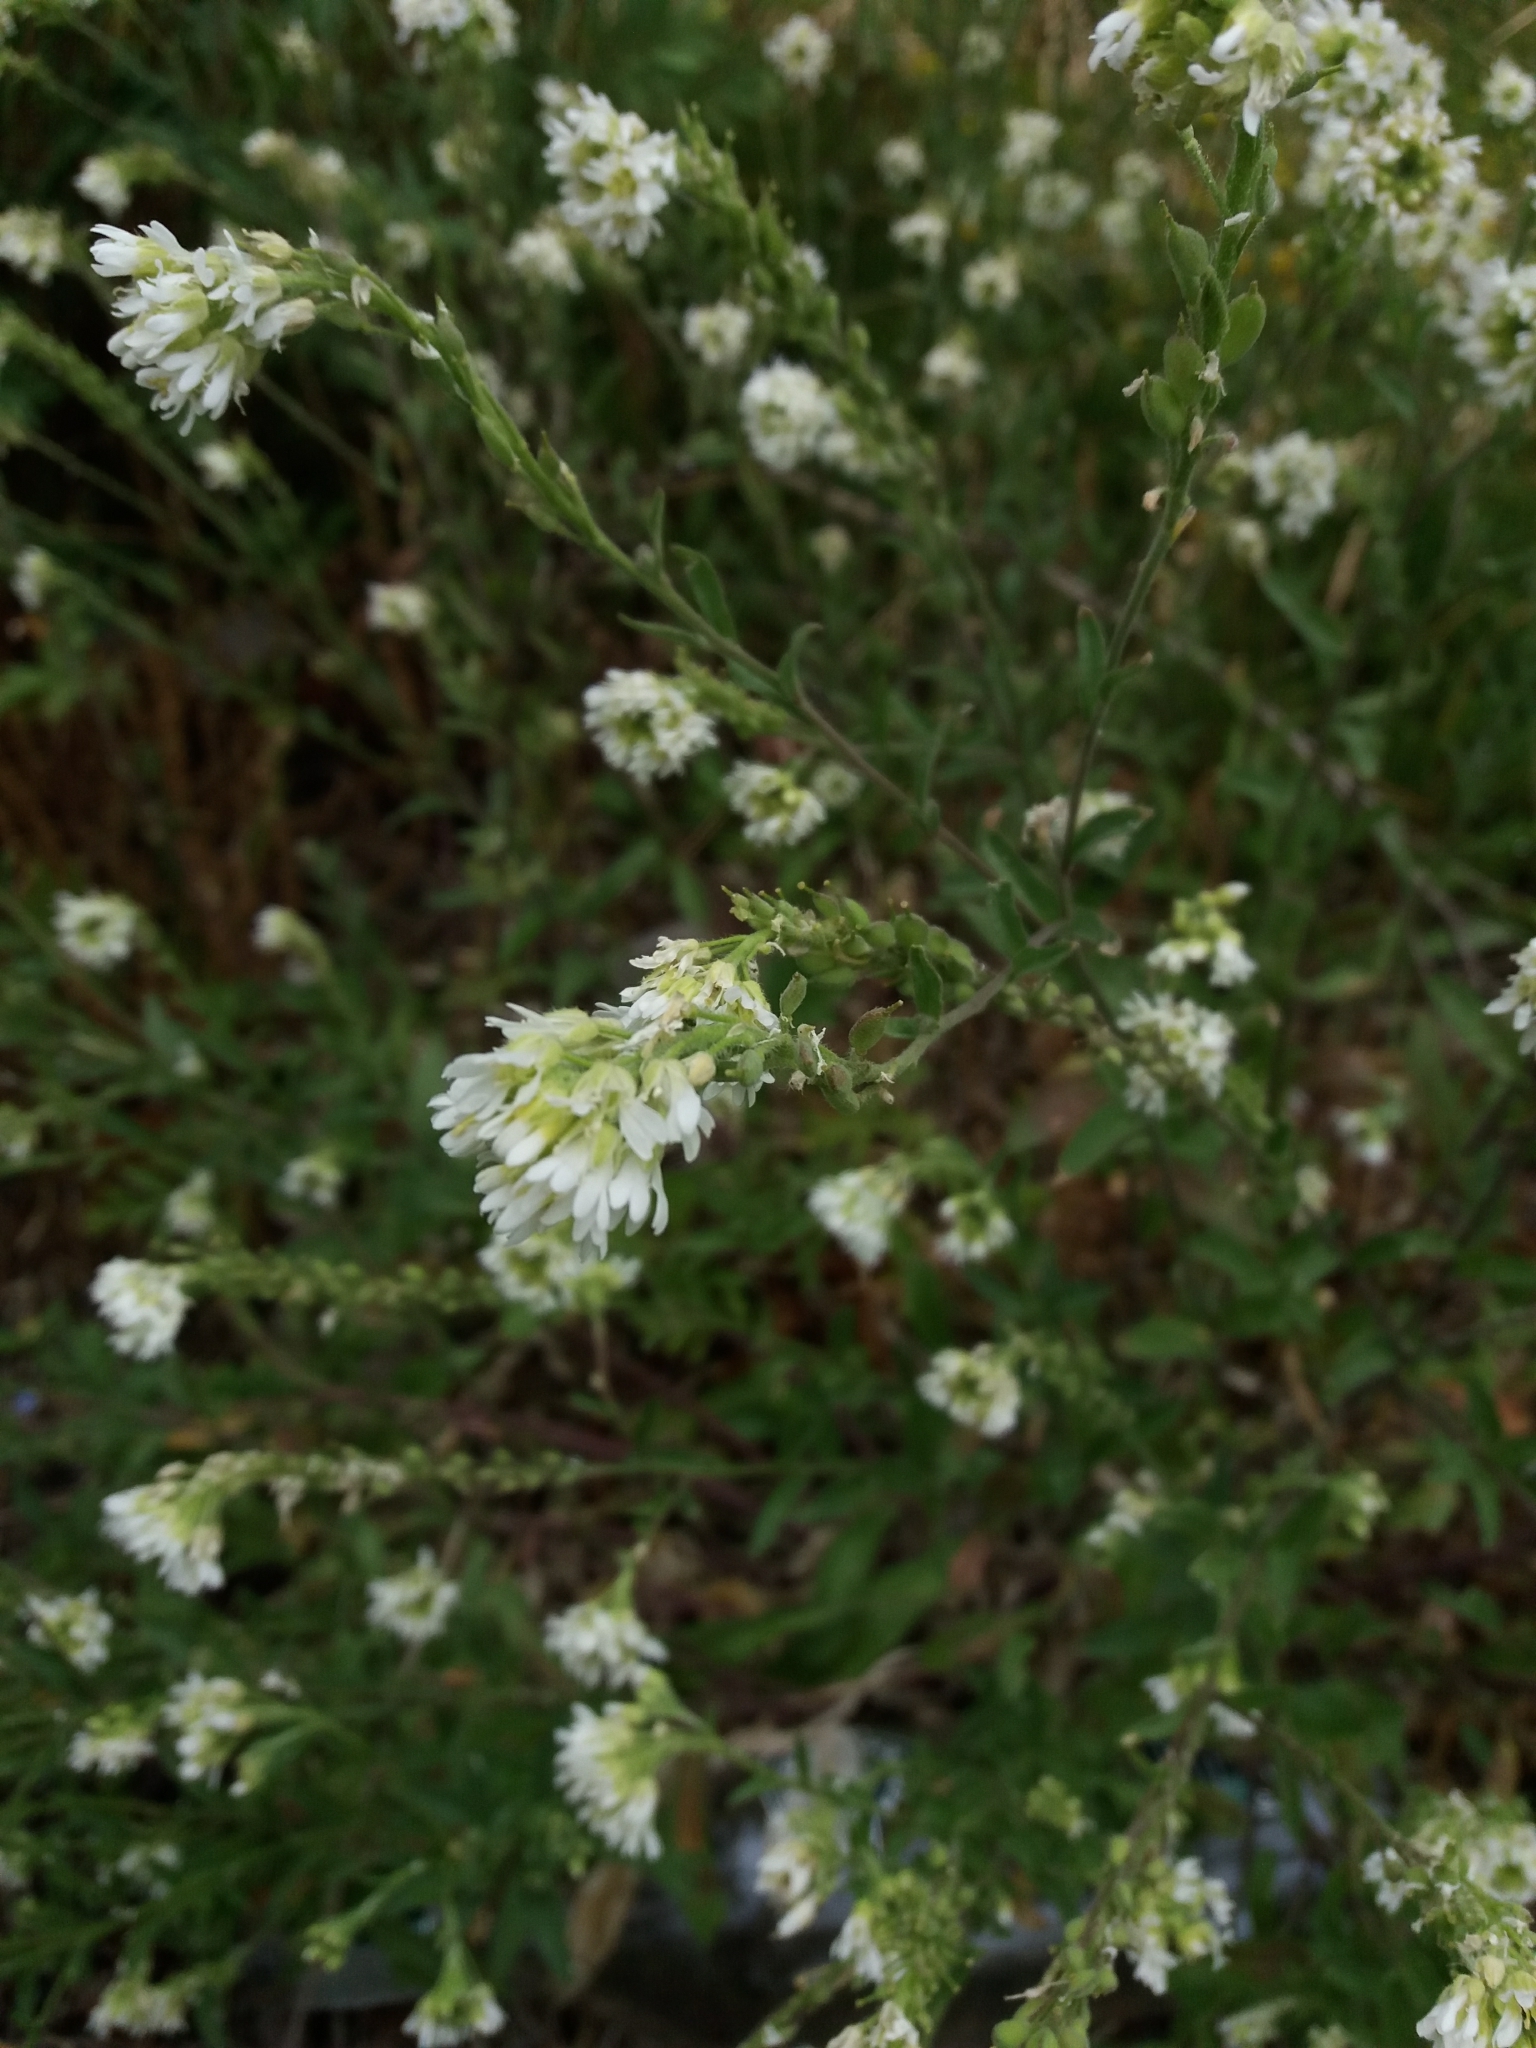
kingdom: Plantae
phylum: Tracheophyta
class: Magnoliopsida
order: Brassicales
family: Brassicaceae
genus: Berteroa
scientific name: Berteroa incana
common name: Hoary alison
